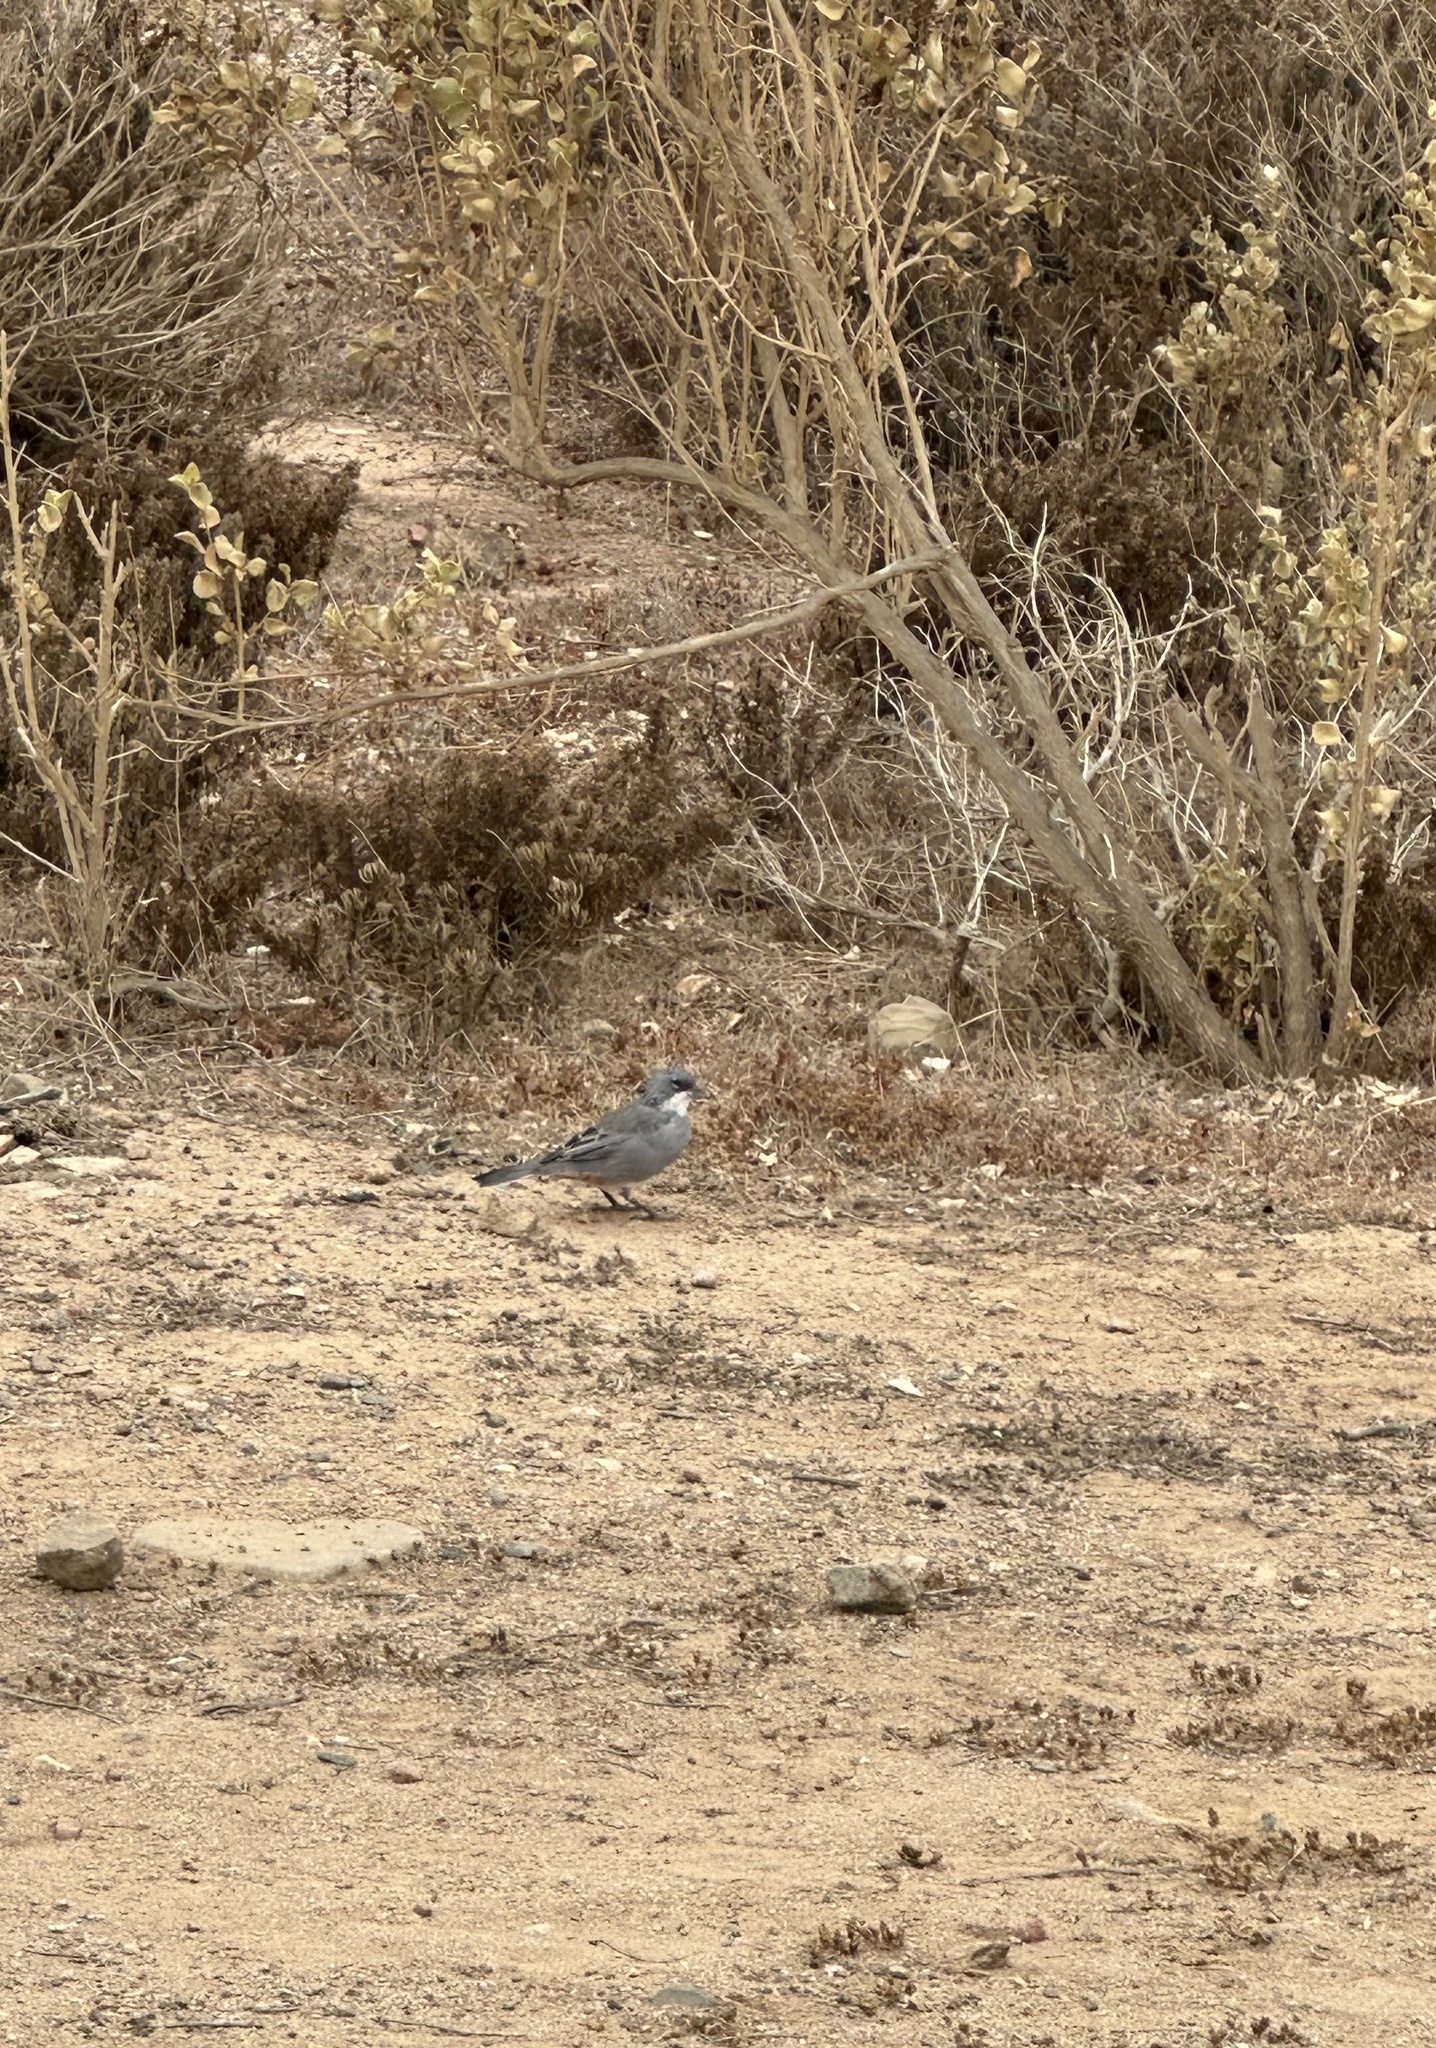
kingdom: Animalia
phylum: Chordata
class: Aves
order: Passeriformes
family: Thraupidae
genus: Diuca
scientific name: Diuca diuca
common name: Common diuca finch
